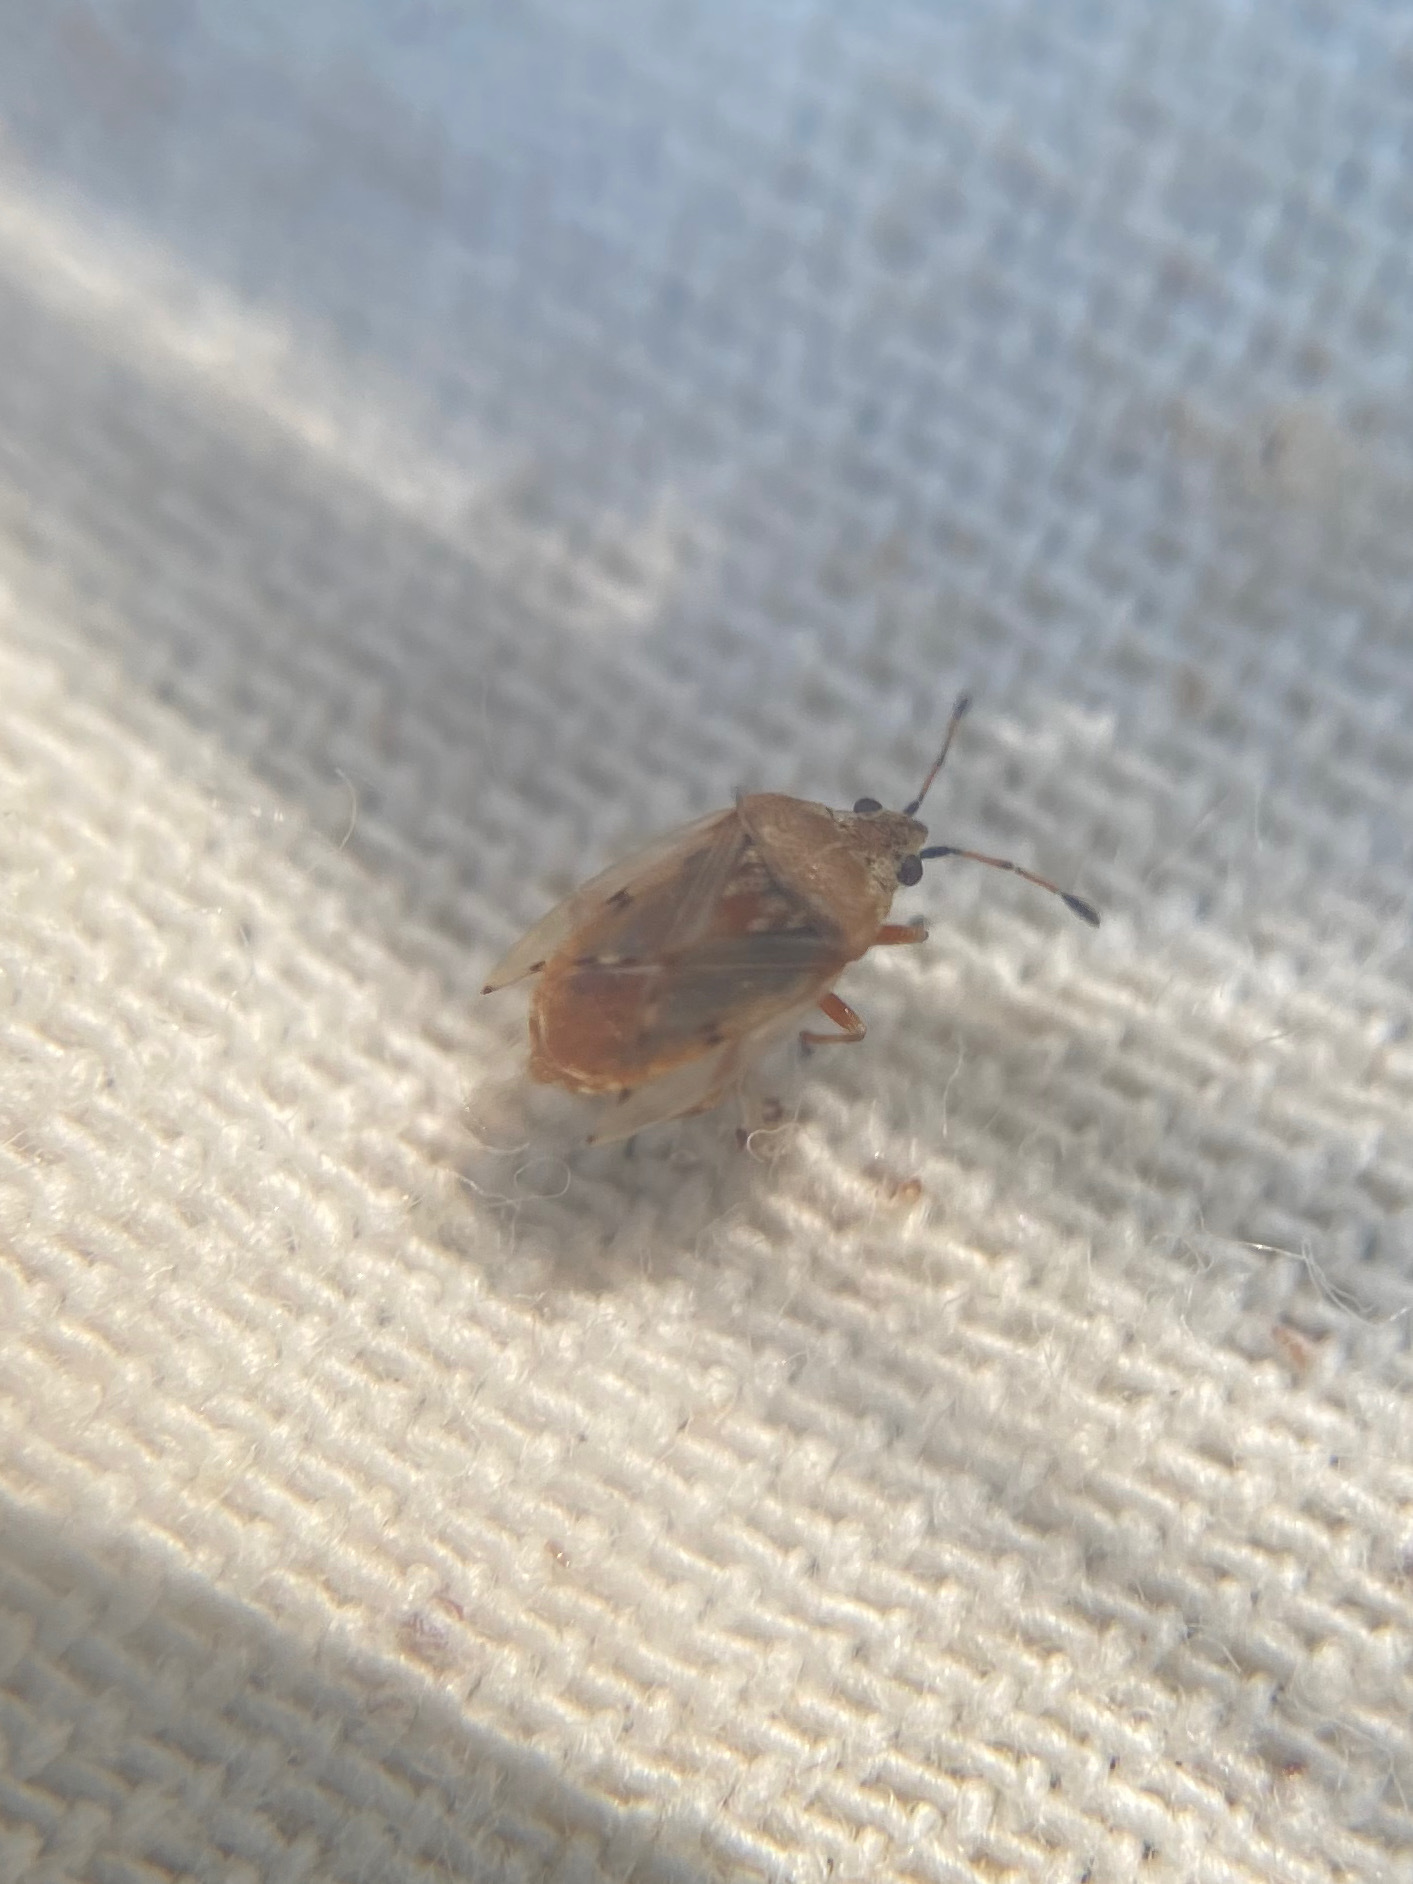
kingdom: Animalia
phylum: Arthropoda
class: Insecta
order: Hemiptera
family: Lygaeidae
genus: Kleidocerys
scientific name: Kleidocerys resedae
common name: Birch catkin bug
